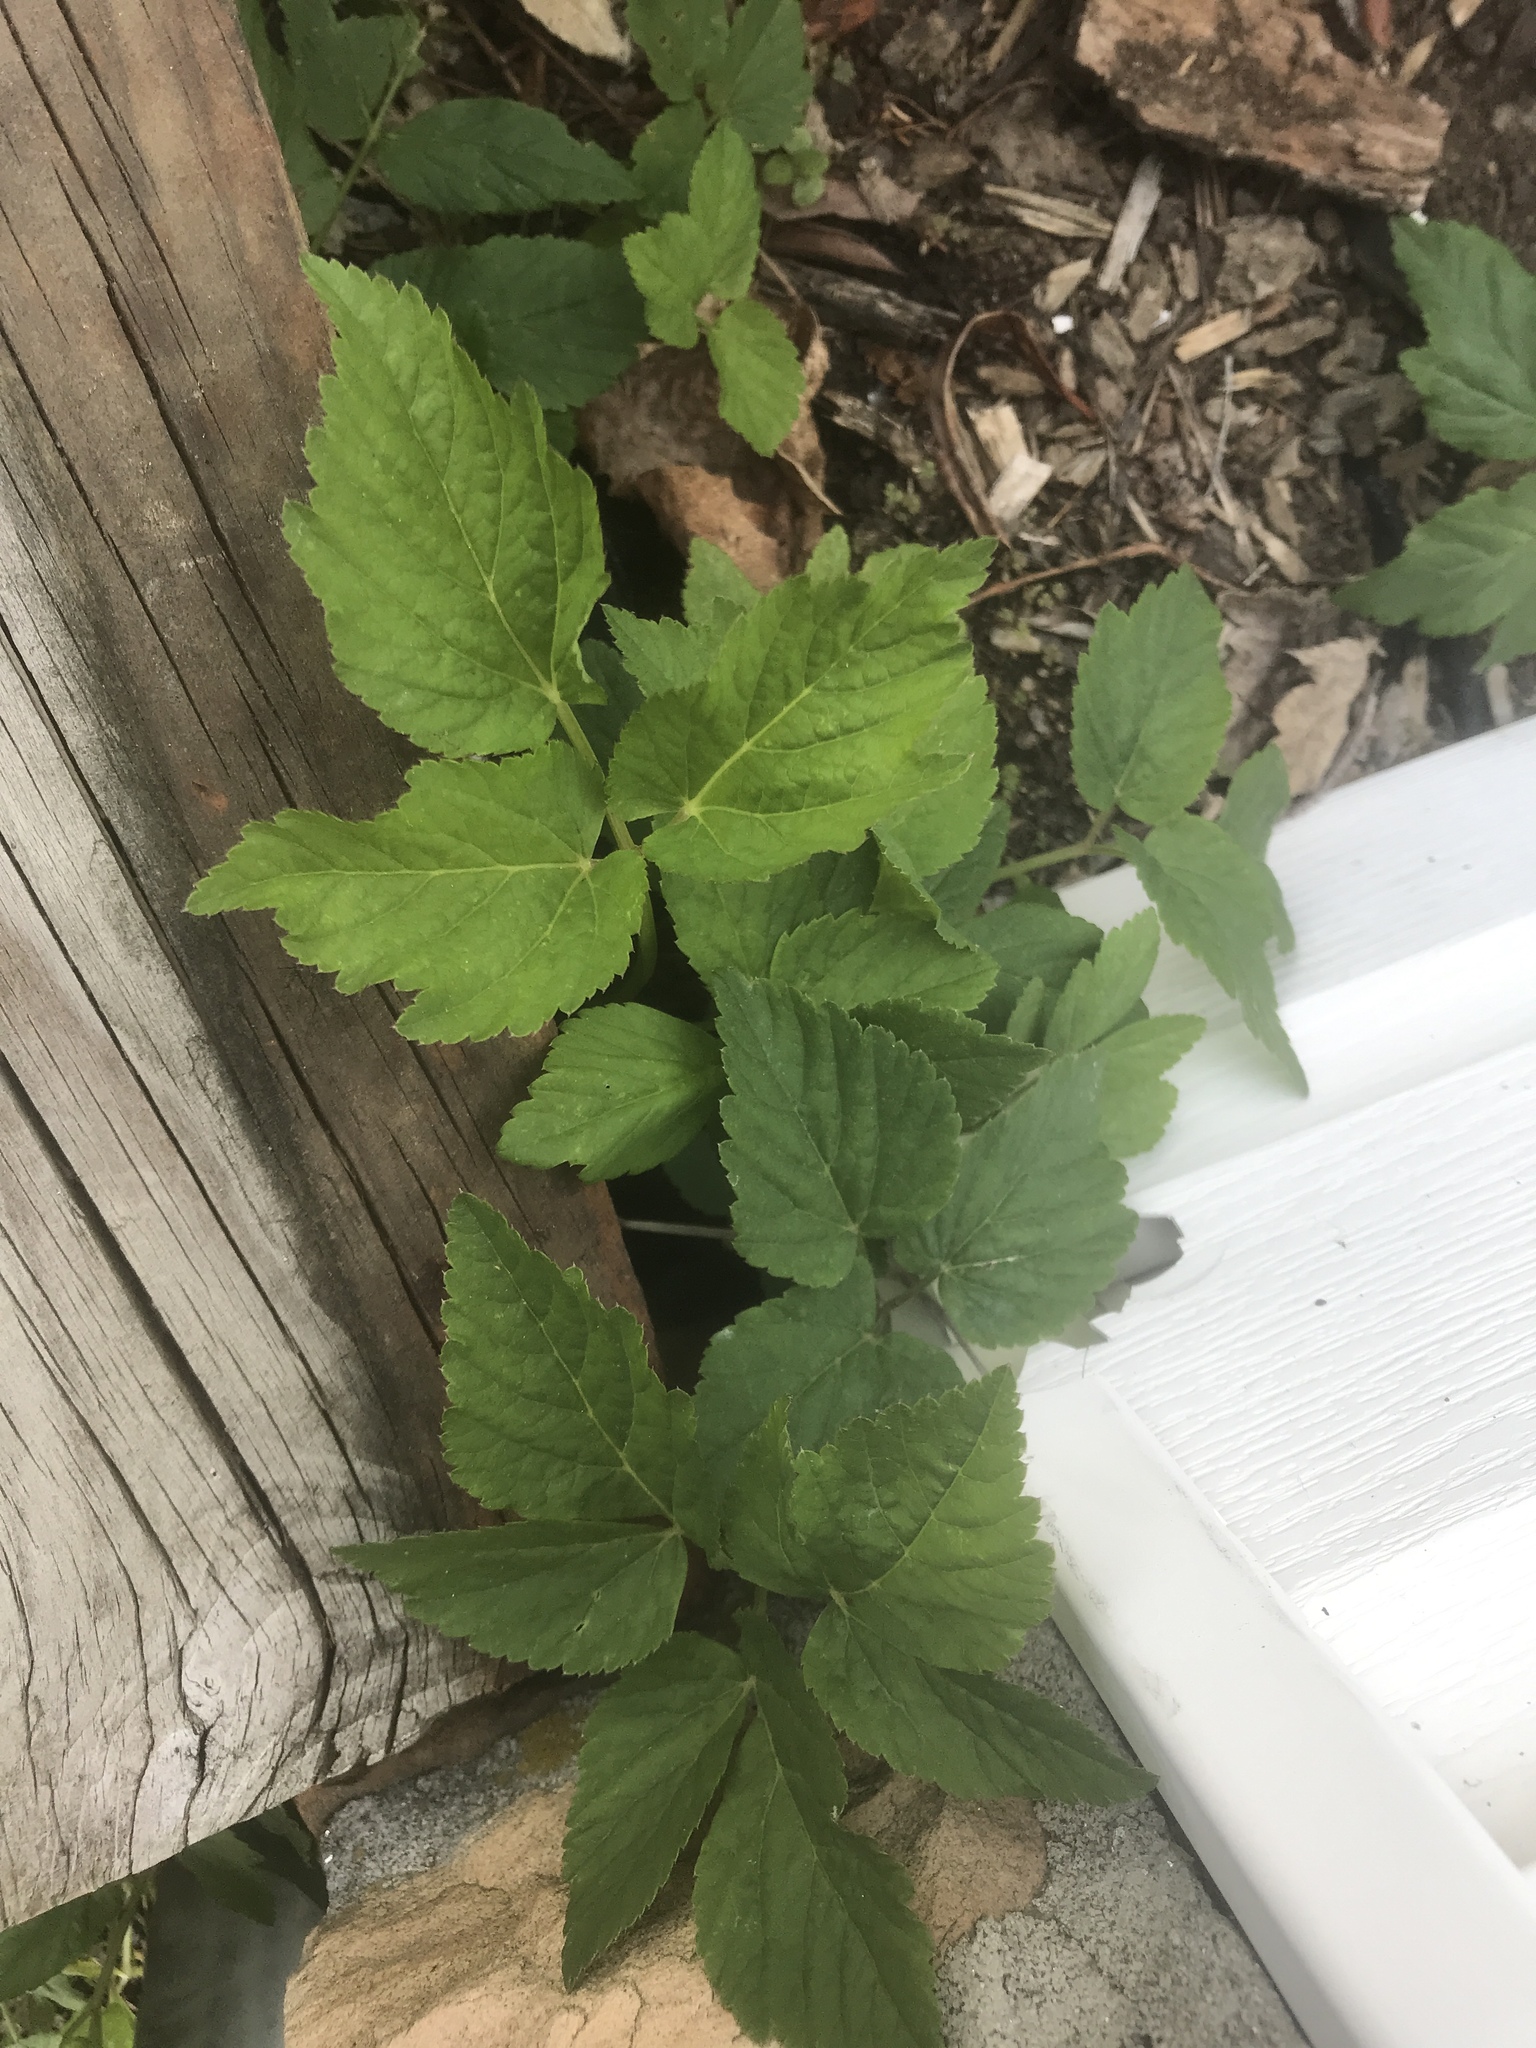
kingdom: Plantae
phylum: Tracheophyta
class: Magnoliopsida
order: Apiales
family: Apiaceae
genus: Aegopodium
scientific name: Aegopodium podagraria
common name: Ground-elder
